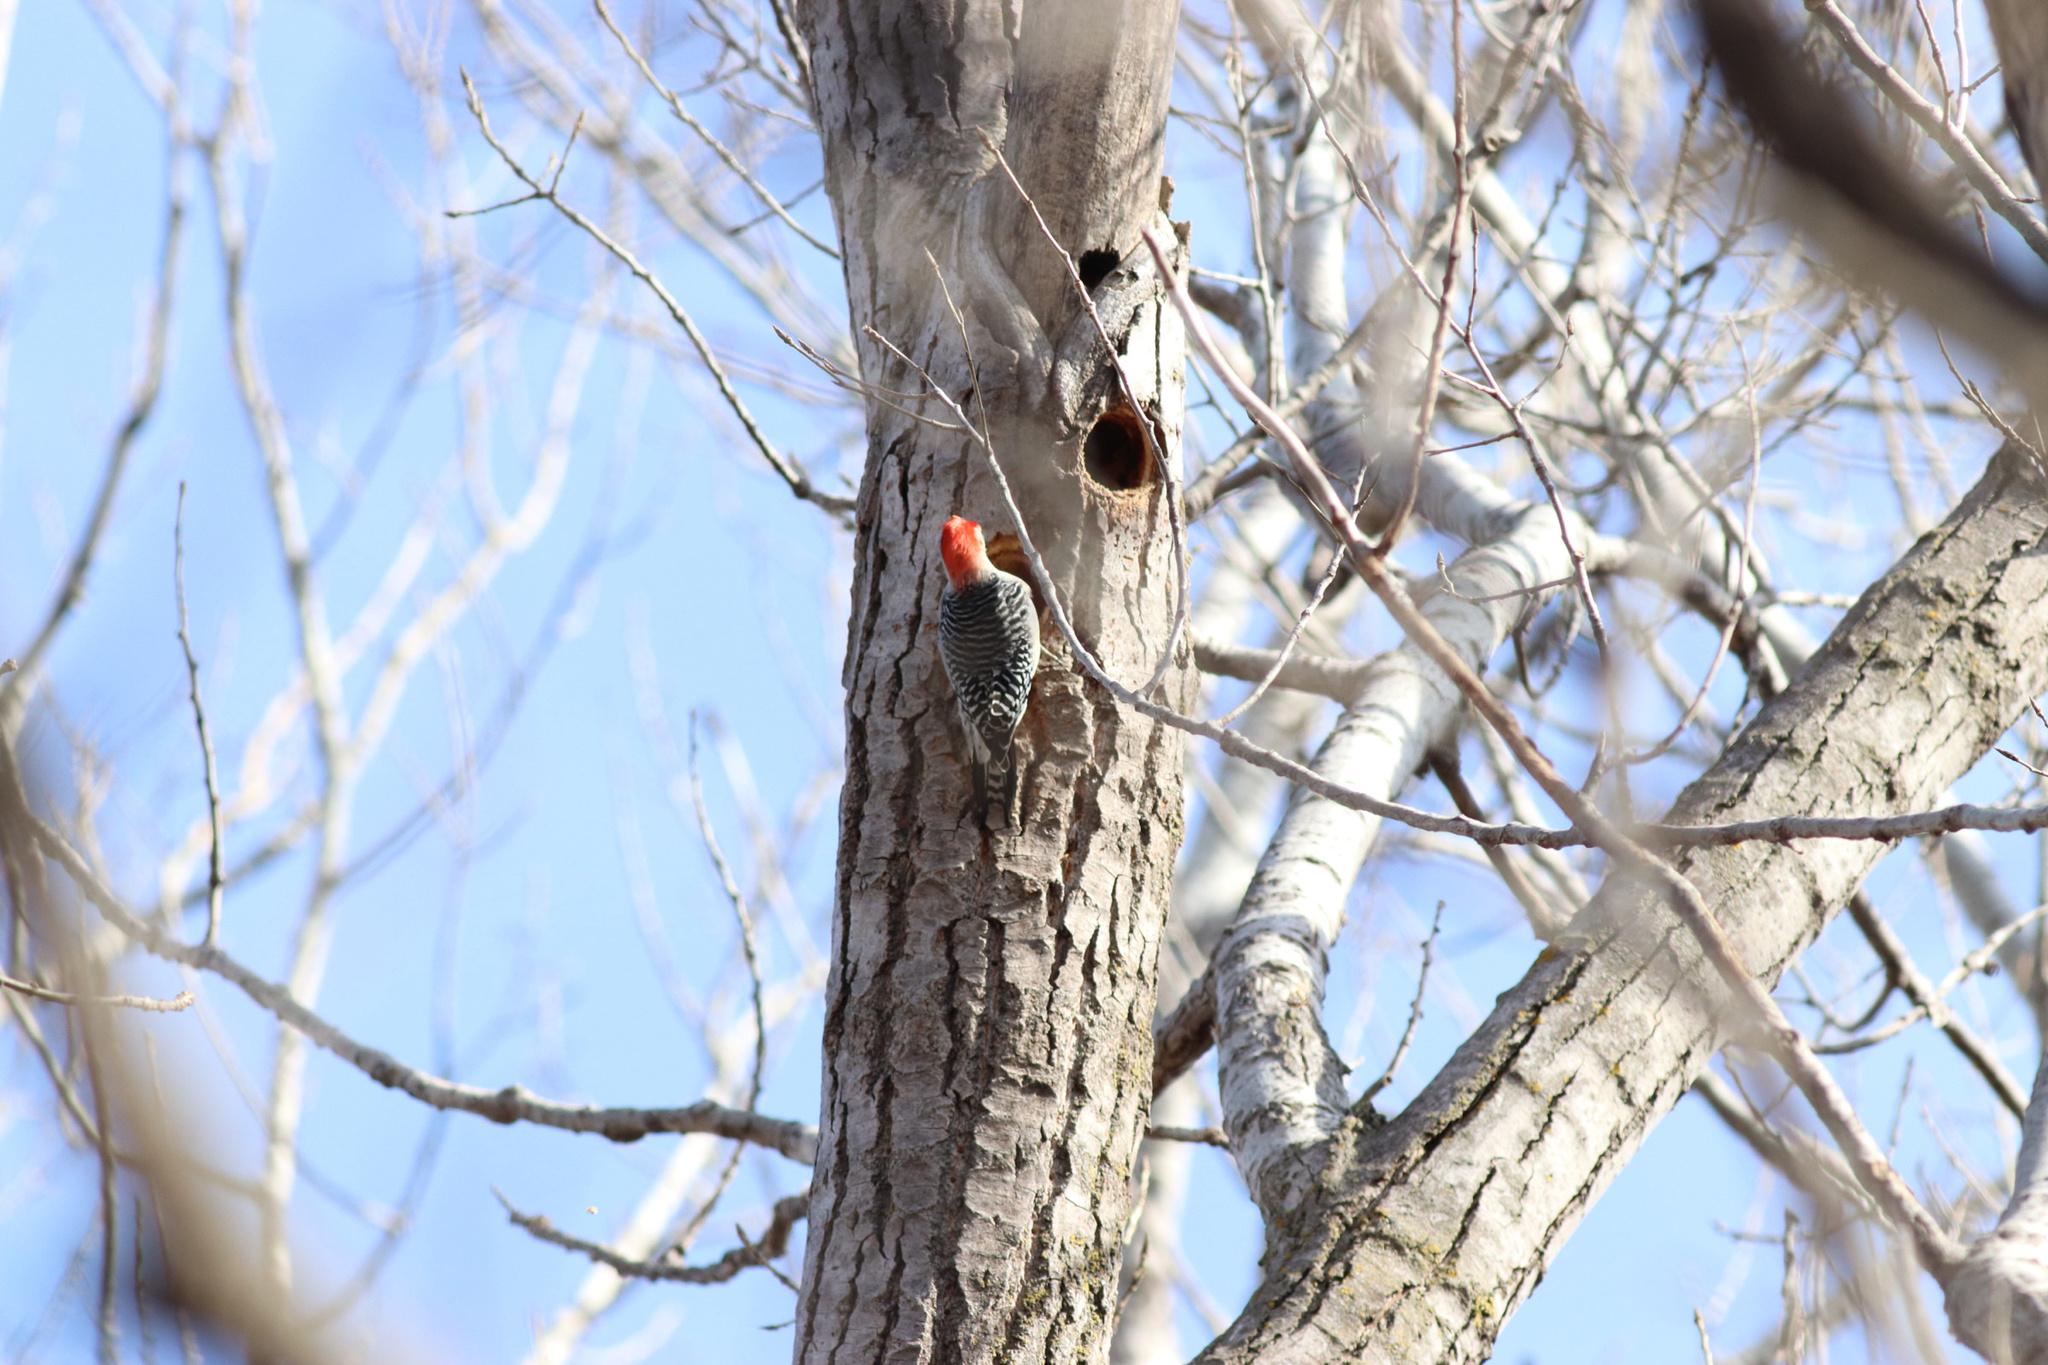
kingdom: Animalia
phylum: Chordata
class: Aves
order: Piciformes
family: Picidae
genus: Melanerpes
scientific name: Melanerpes carolinus
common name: Red-bellied woodpecker
